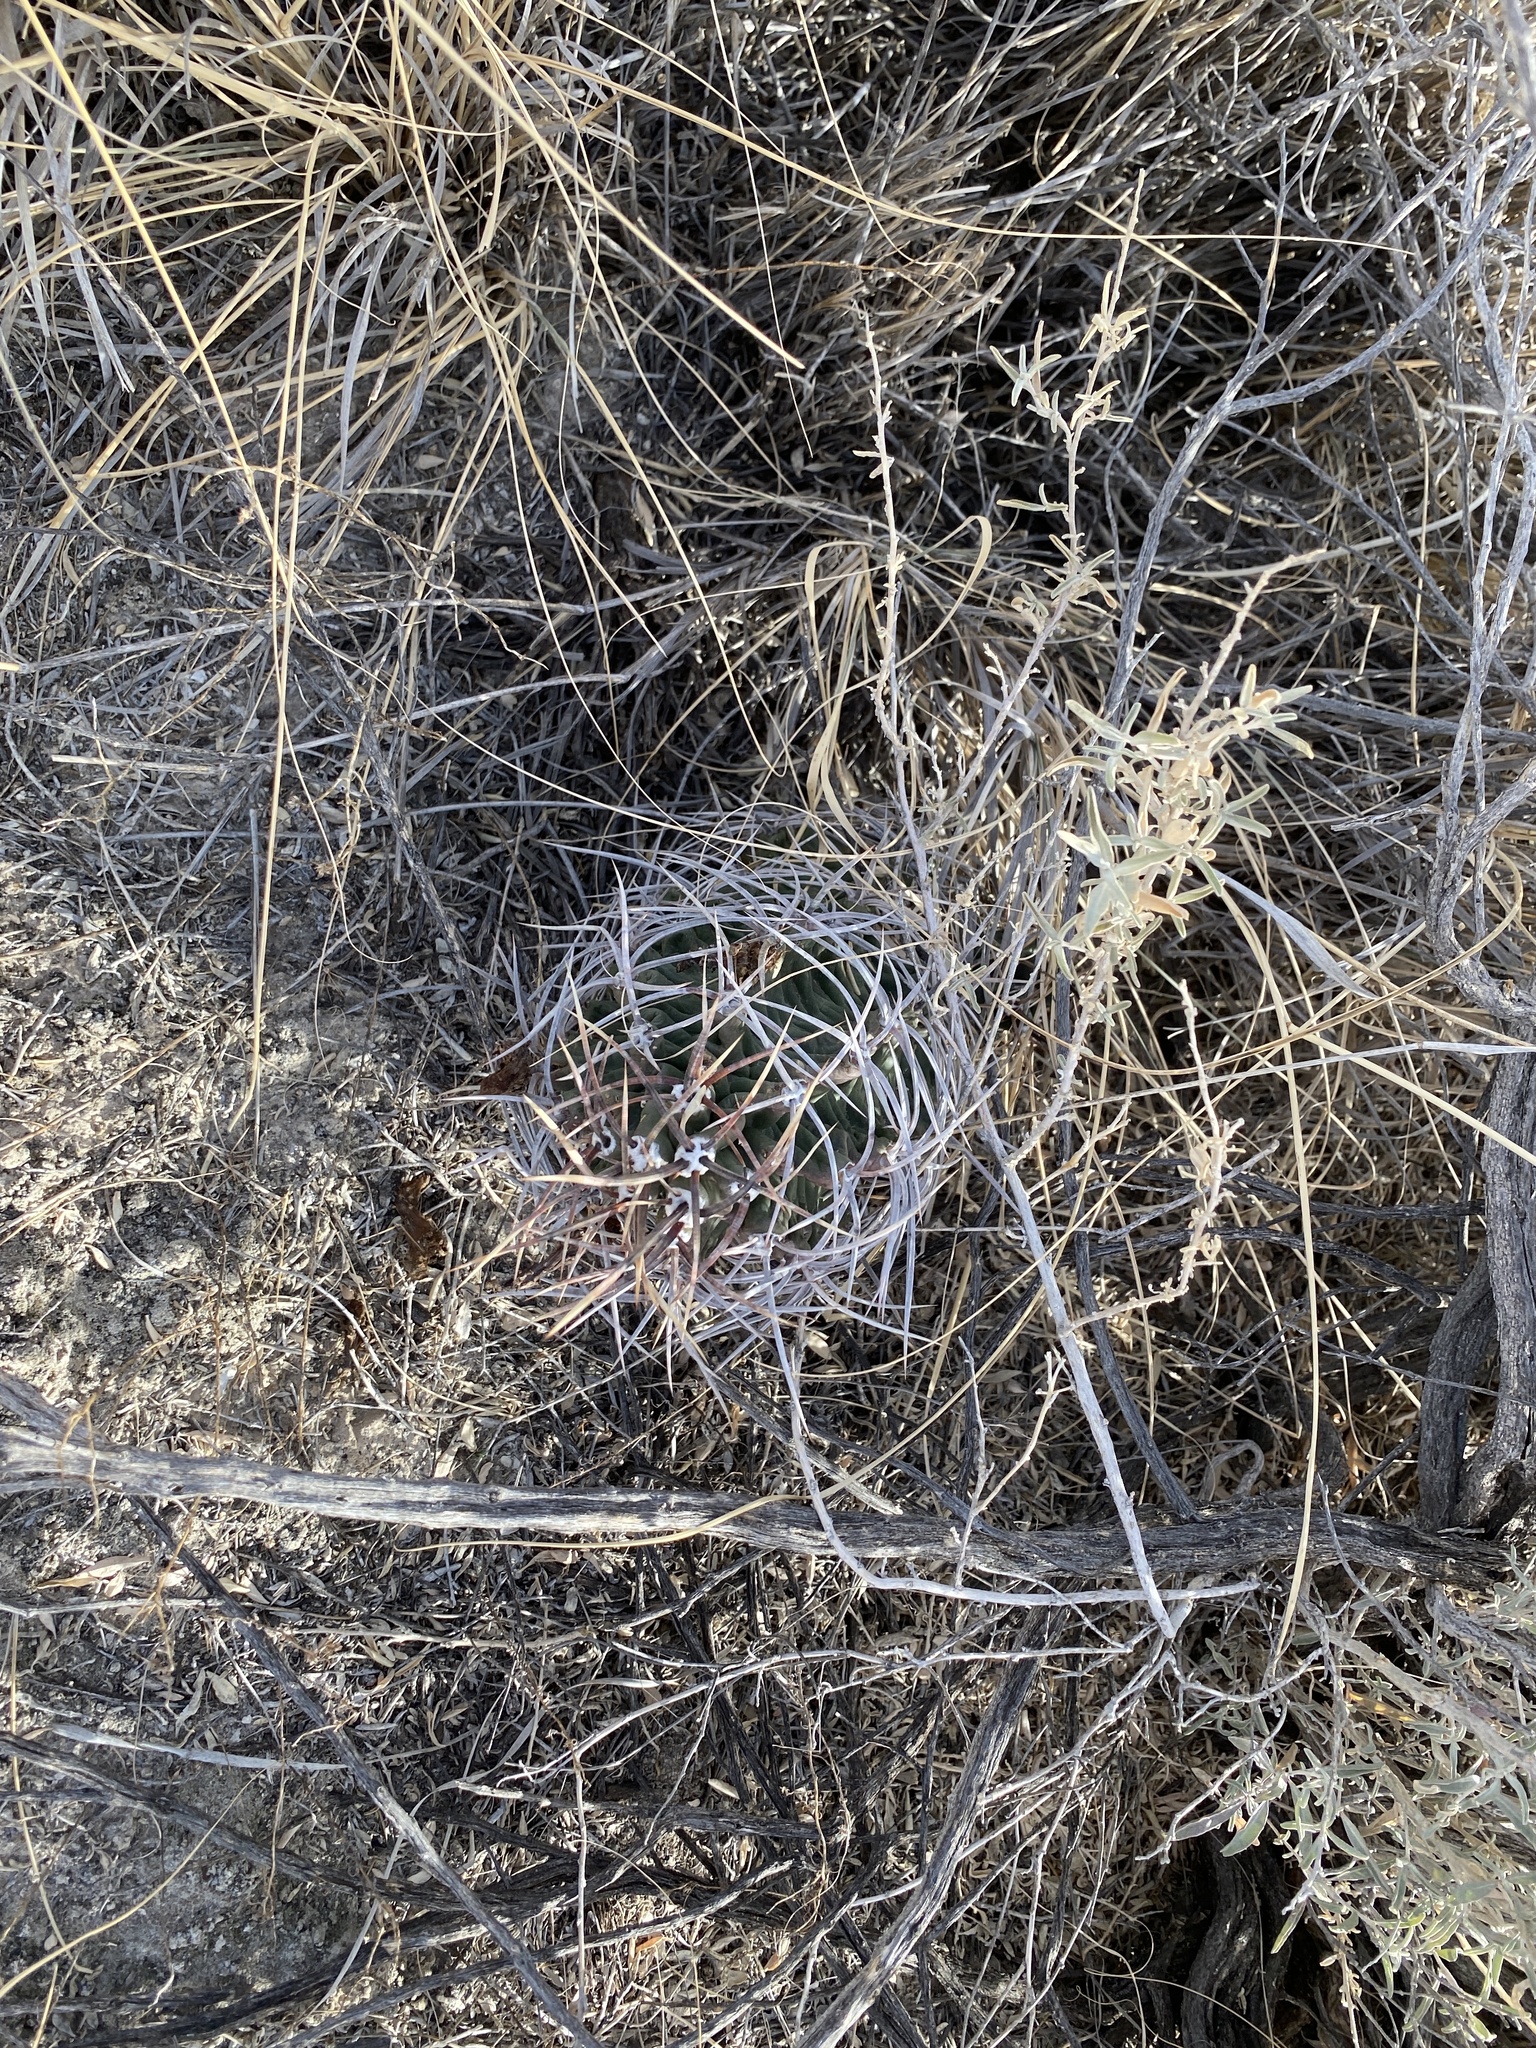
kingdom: Plantae
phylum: Tracheophyta
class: Magnoliopsida
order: Caryophyllales
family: Cactaceae
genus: Echinocereus
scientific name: Echinocereus triglochidiatus
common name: Claretcup hedgehog
